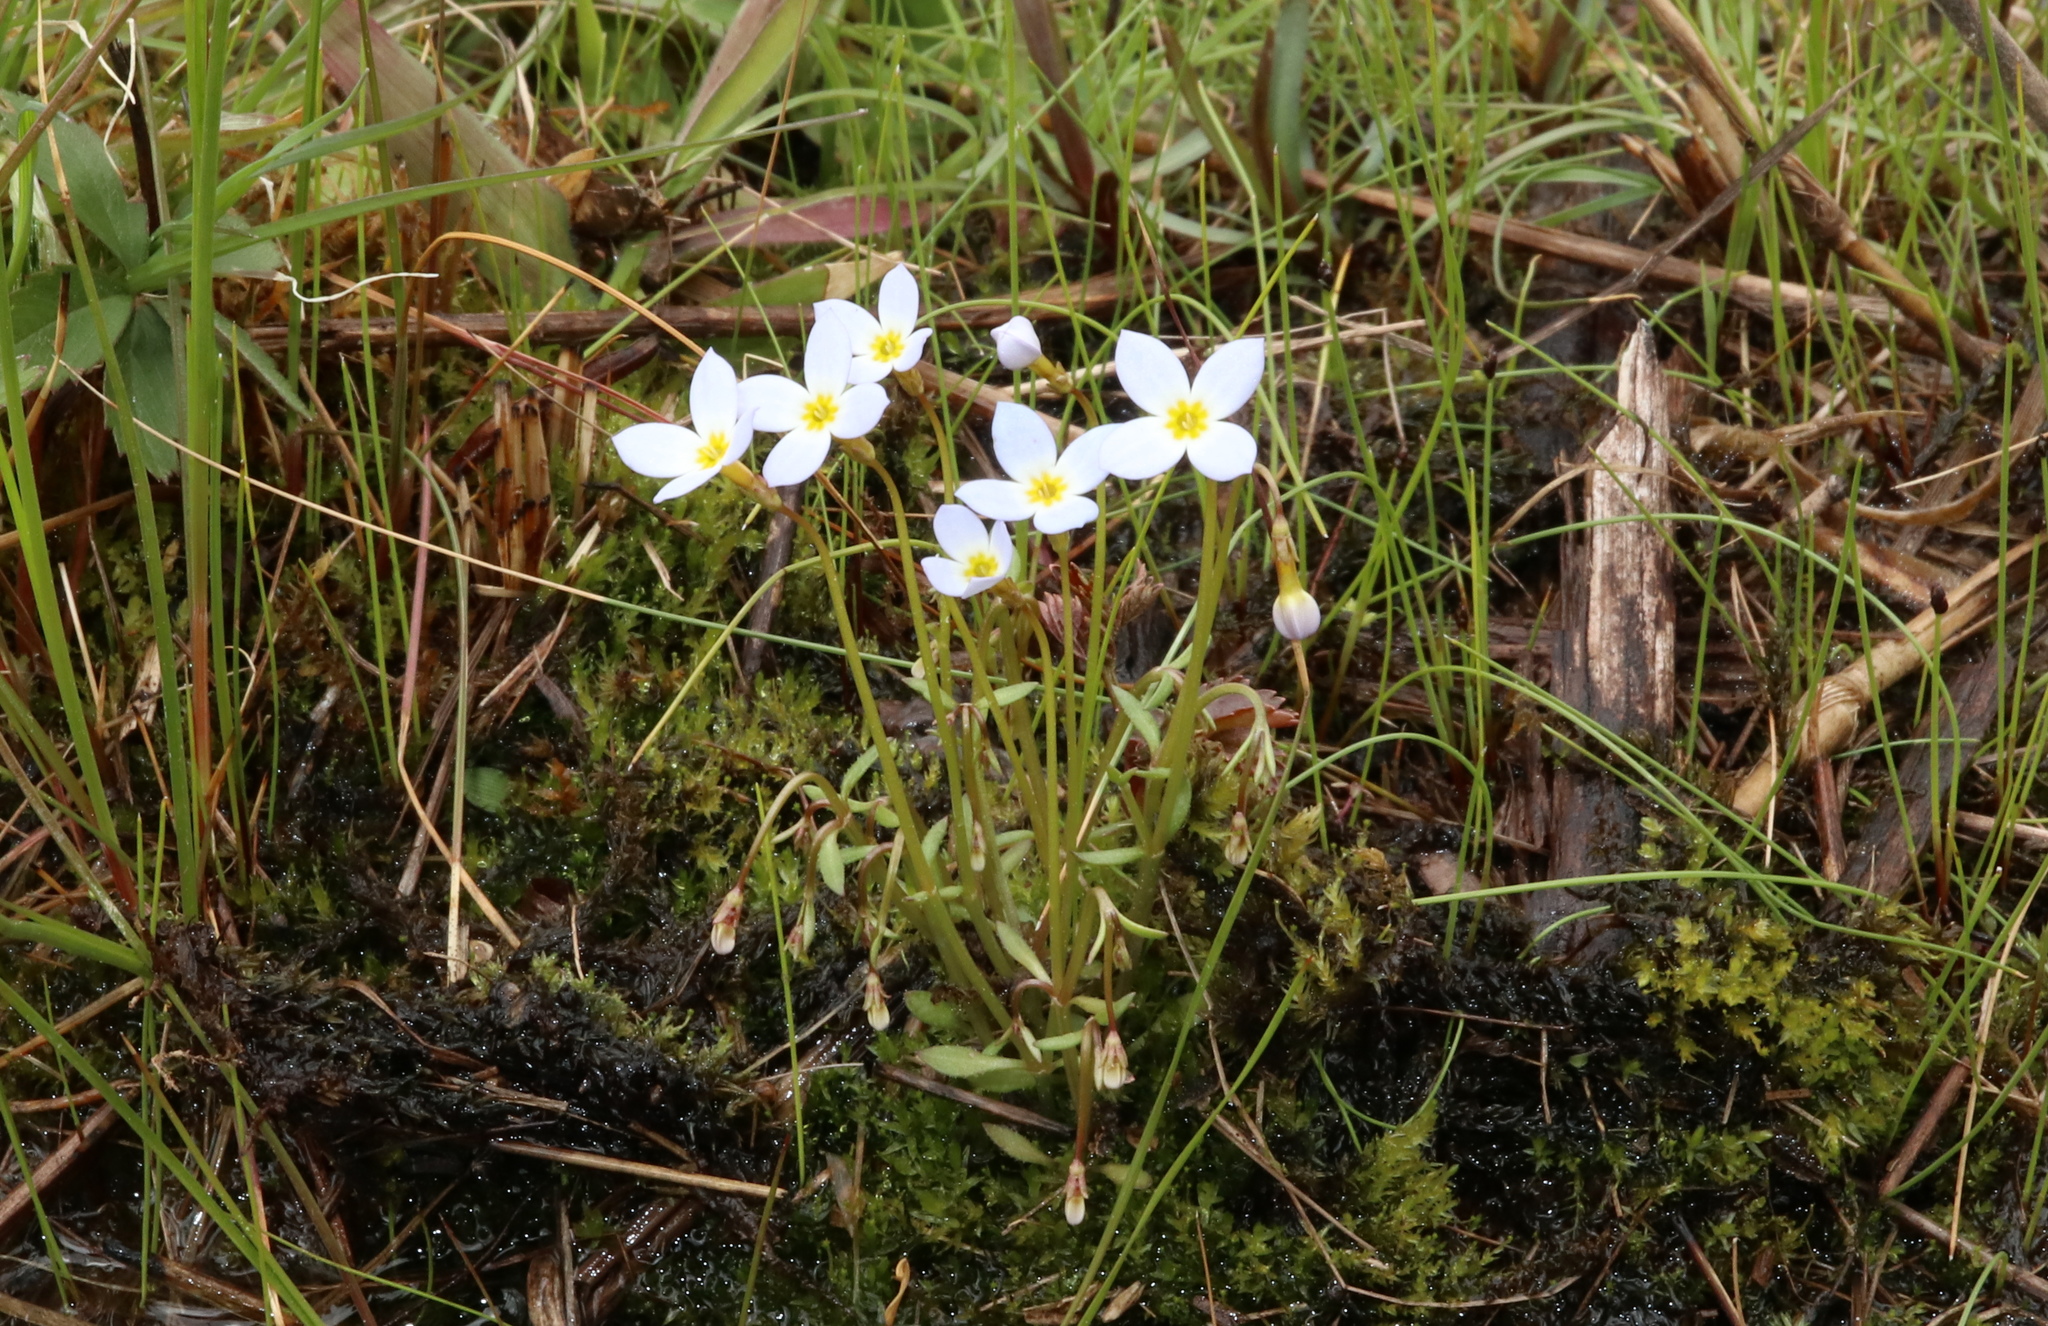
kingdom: Plantae
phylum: Tracheophyta
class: Magnoliopsida
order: Gentianales
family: Rubiaceae
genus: Houstonia
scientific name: Houstonia caerulea
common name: Bluets
